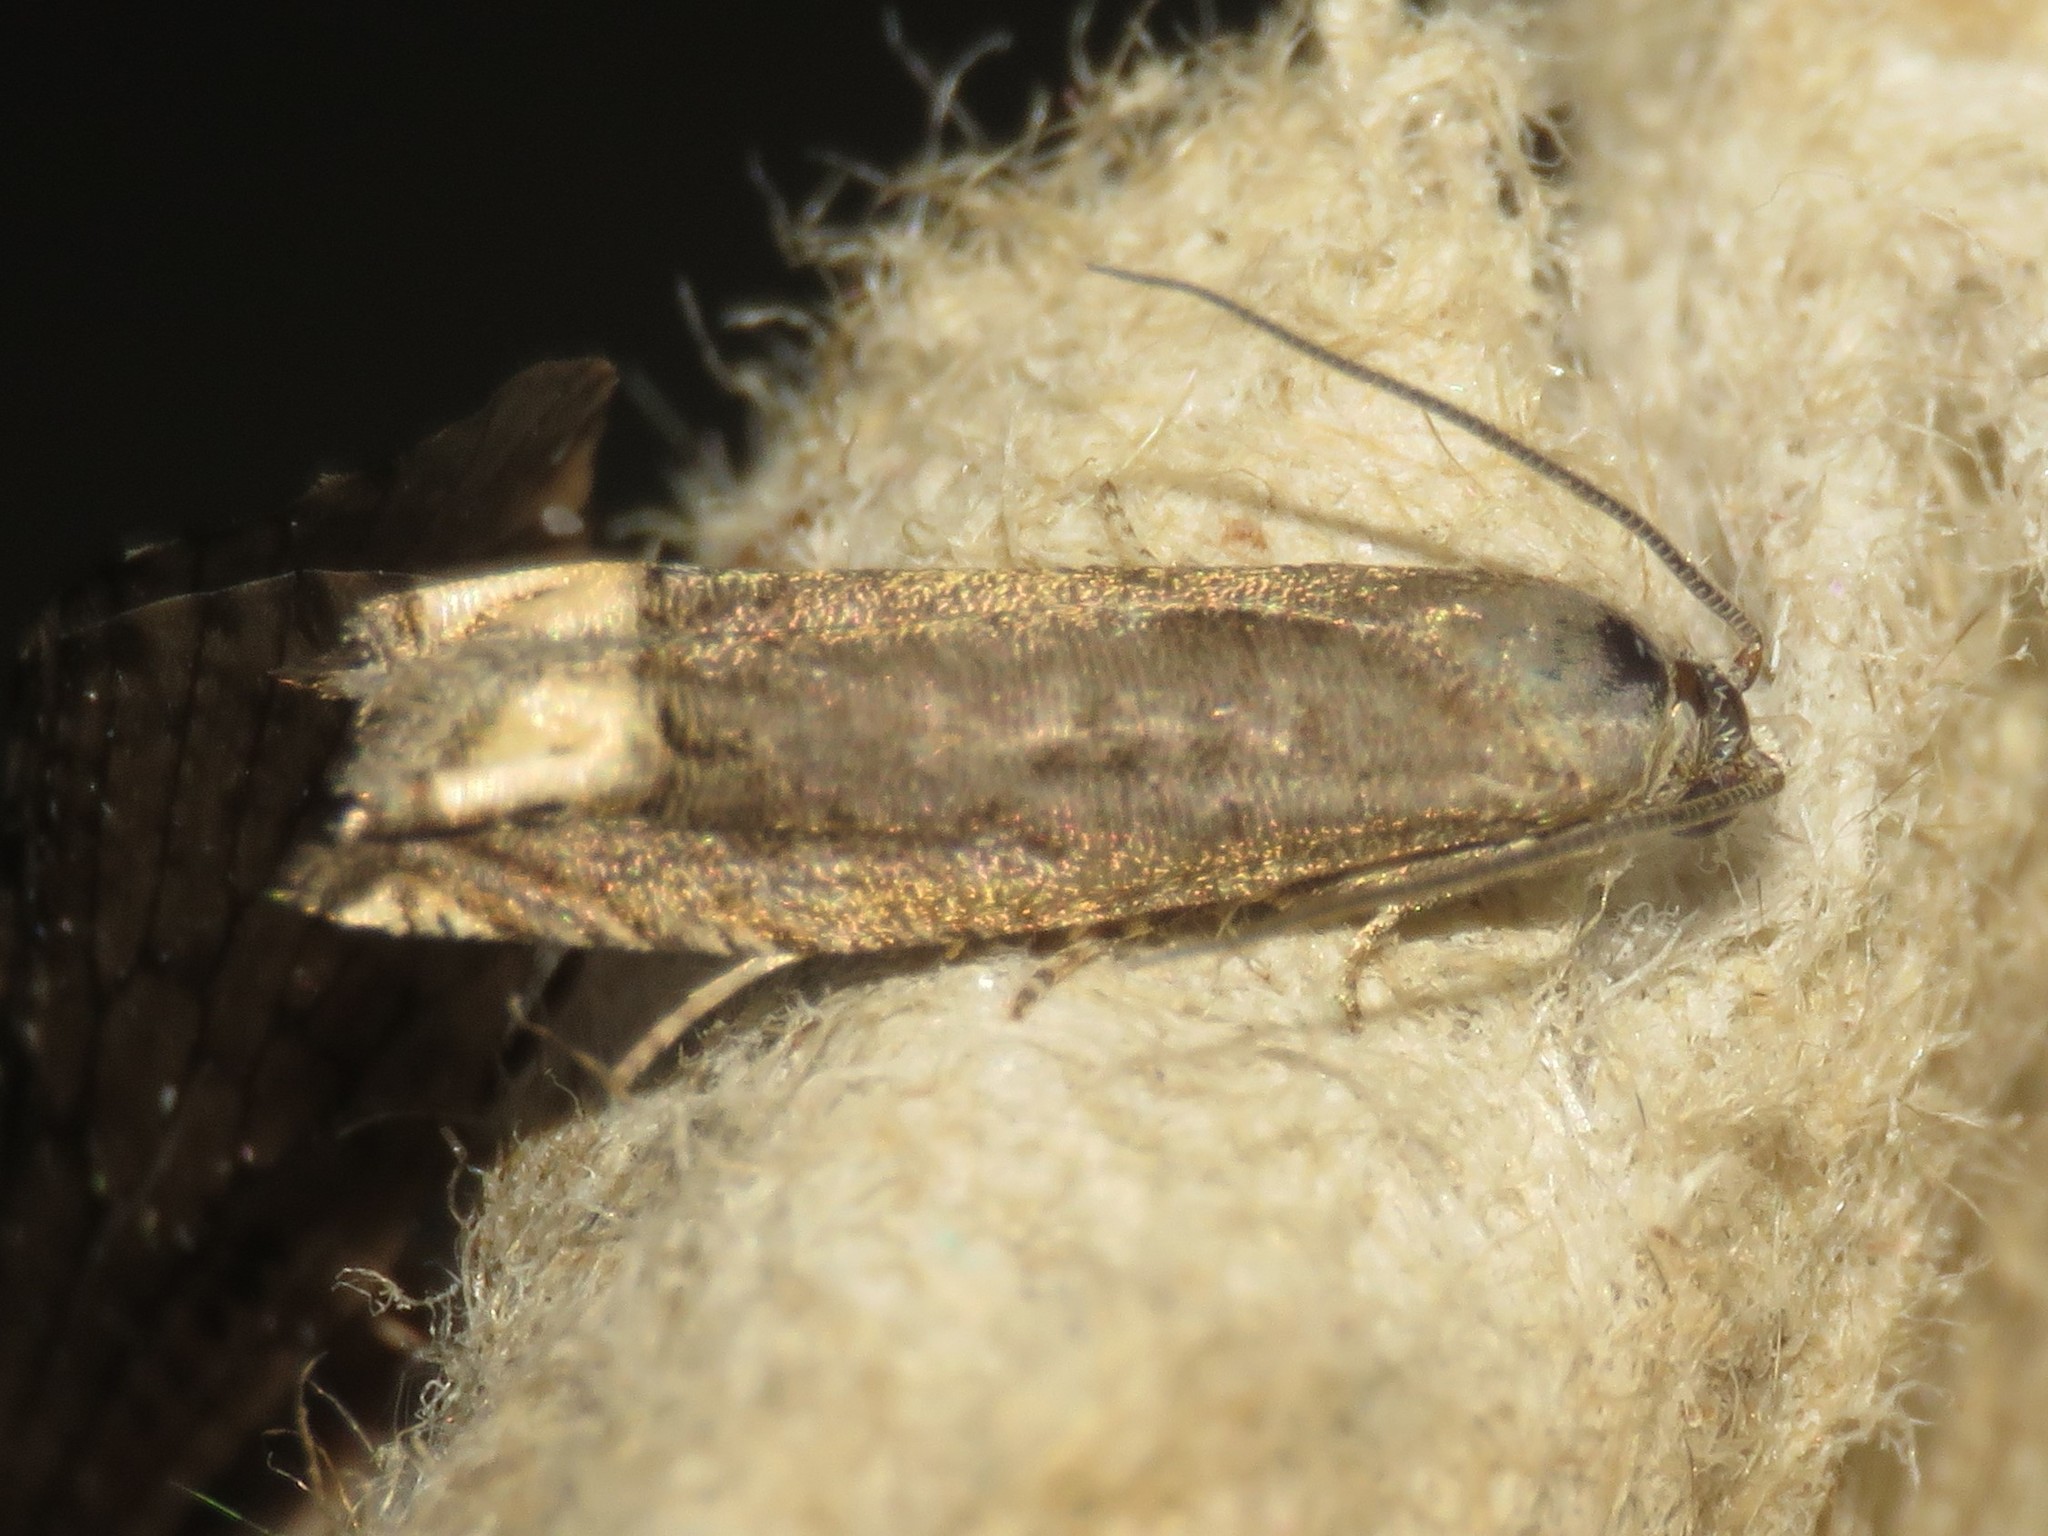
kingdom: Animalia
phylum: Arthropoda
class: Insecta
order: Lepidoptera
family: Tortricidae
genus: Epiblema
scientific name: Epiblema strenuana
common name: Ragweed borer moth
